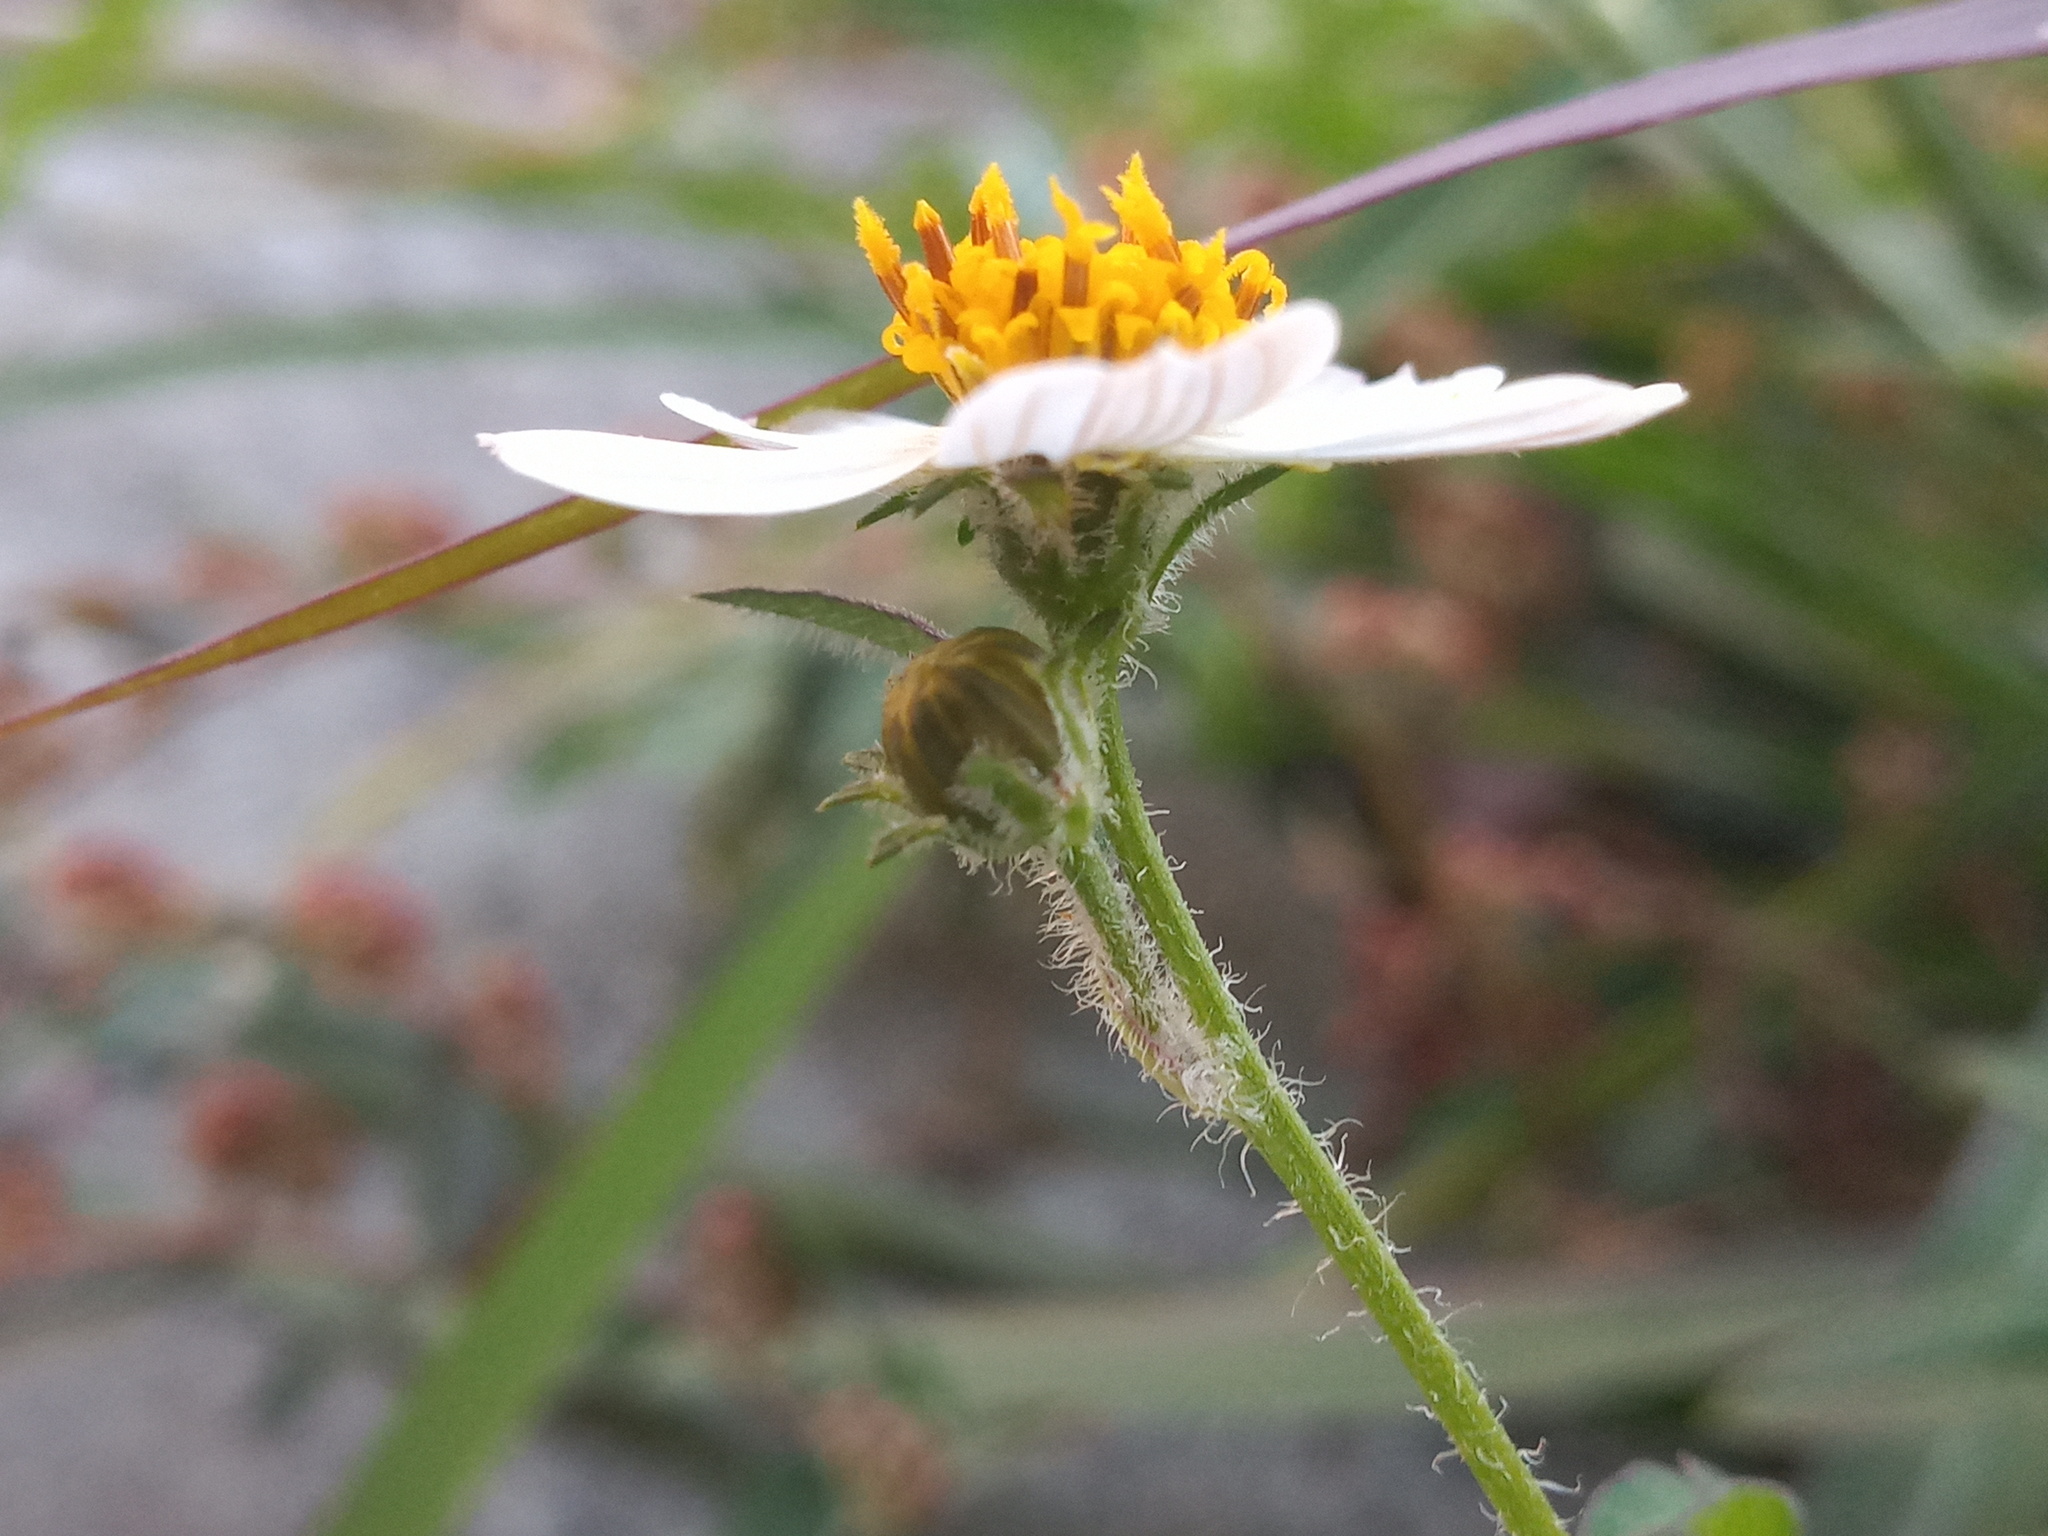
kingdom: Plantae
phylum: Tracheophyta
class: Magnoliopsida
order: Asterales
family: Asteraceae
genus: Bidens
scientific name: Bidens odorata
